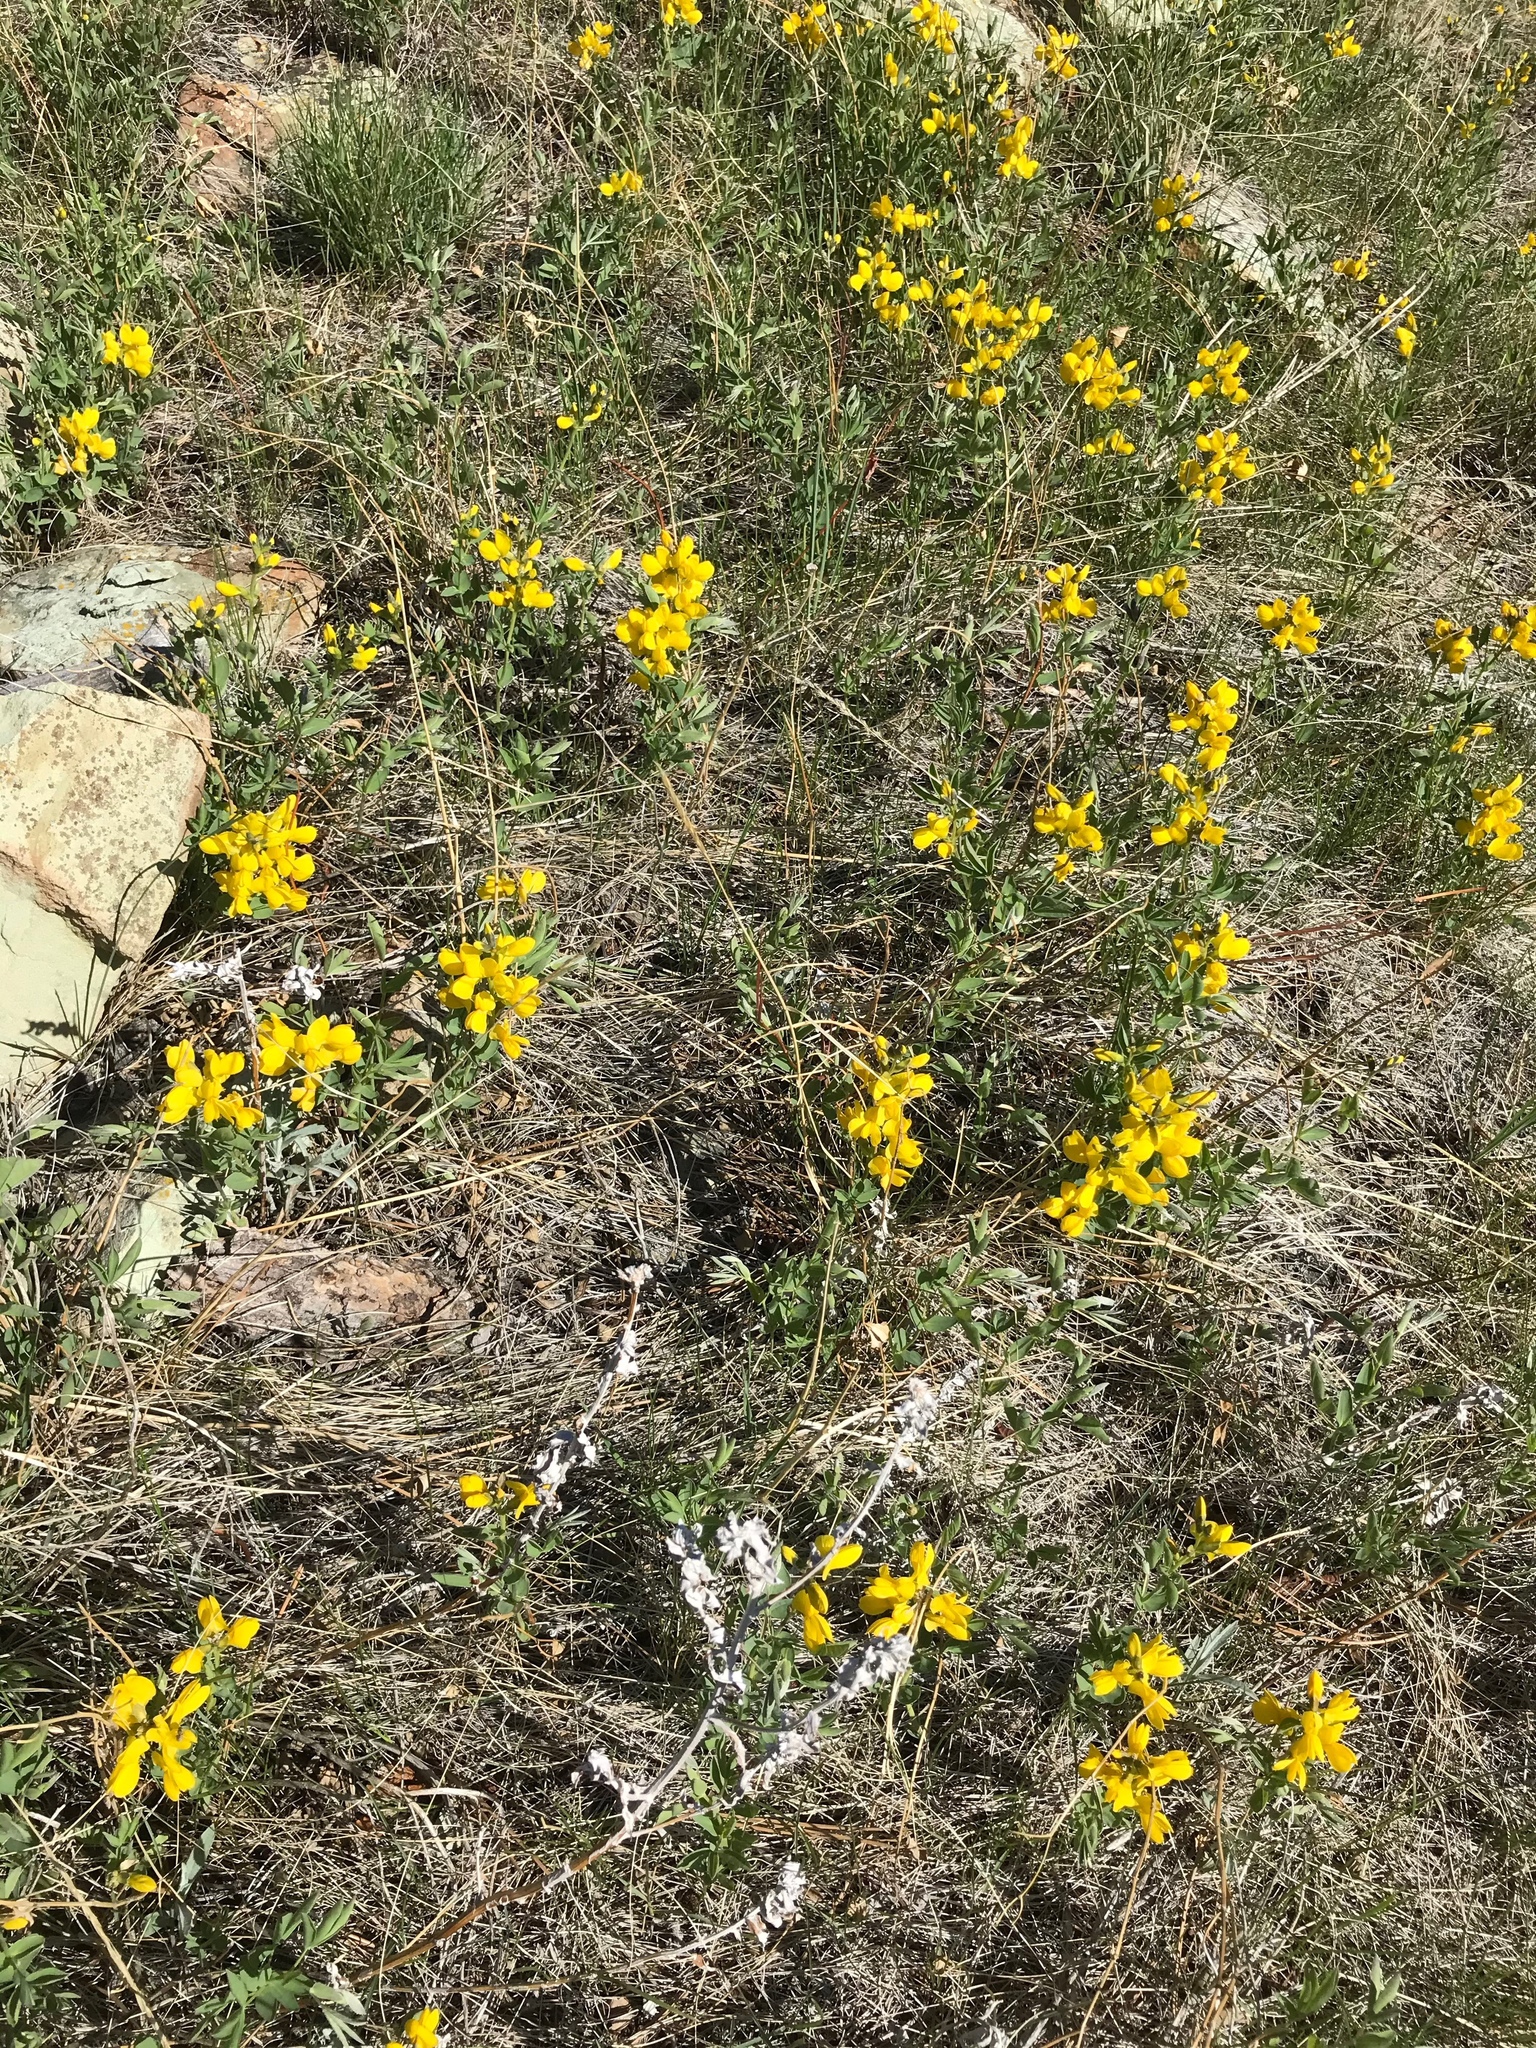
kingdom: Plantae
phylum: Tracheophyta
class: Magnoliopsida
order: Fabales
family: Fabaceae
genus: Thermopsis
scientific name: Thermopsis rhombifolia
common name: Circle-pod-pea
